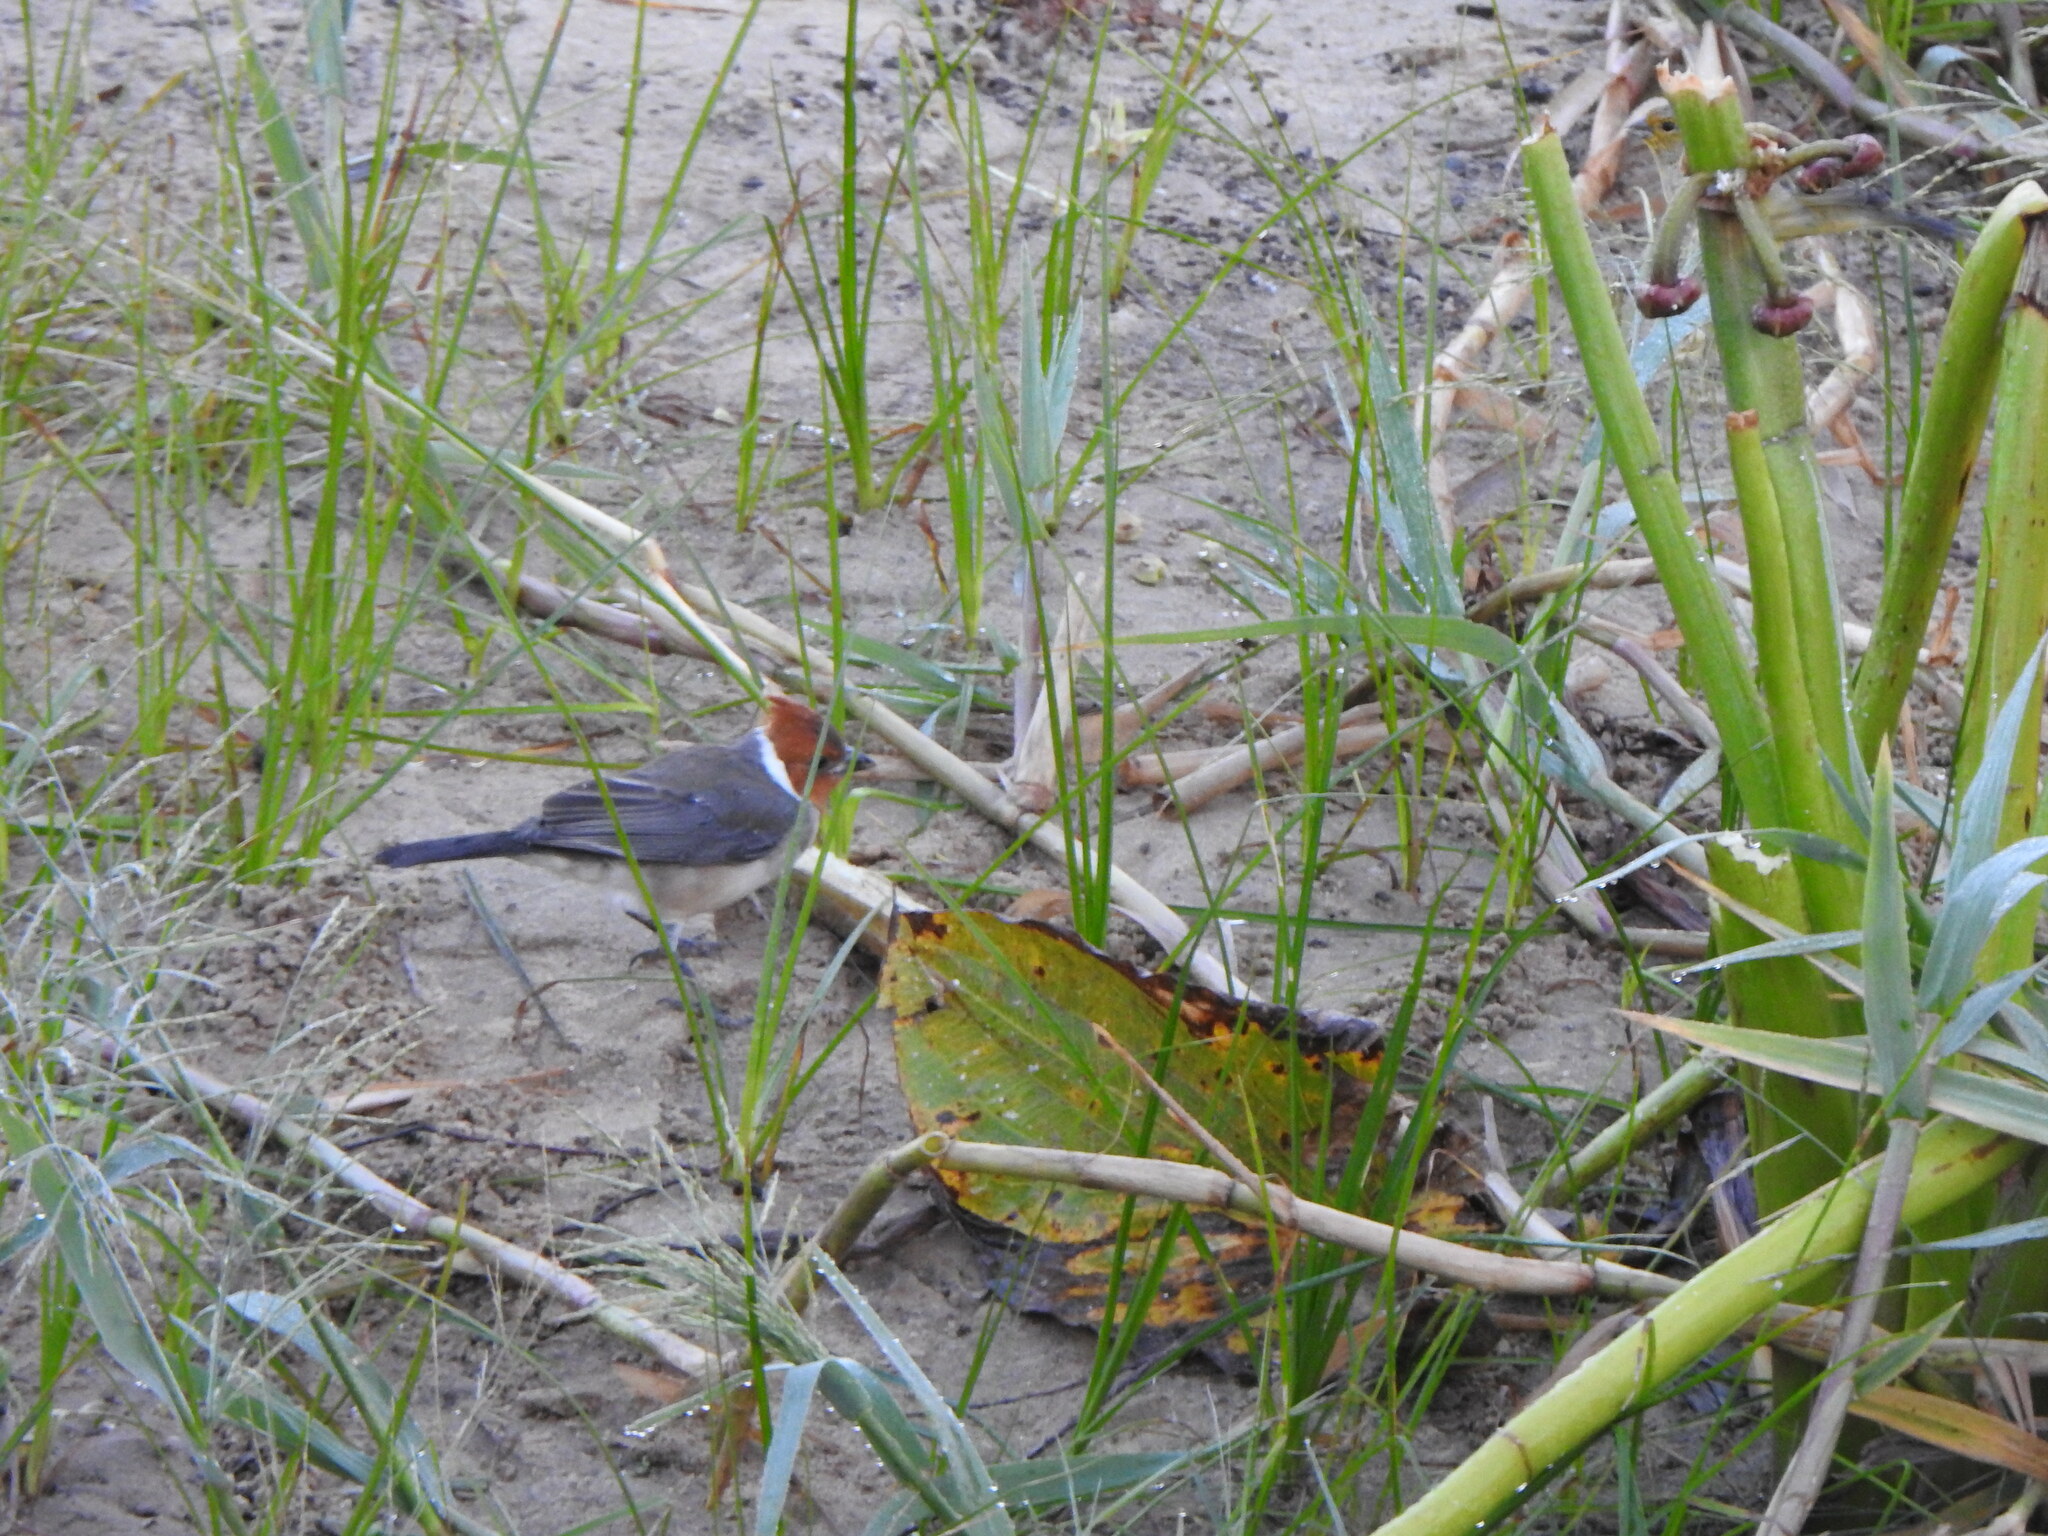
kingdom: Animalia
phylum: Chordata
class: Aves
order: Passeriformes
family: Thraupidae
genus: Paroaria
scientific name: Paroaria coronata
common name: Red-crested cardinal
